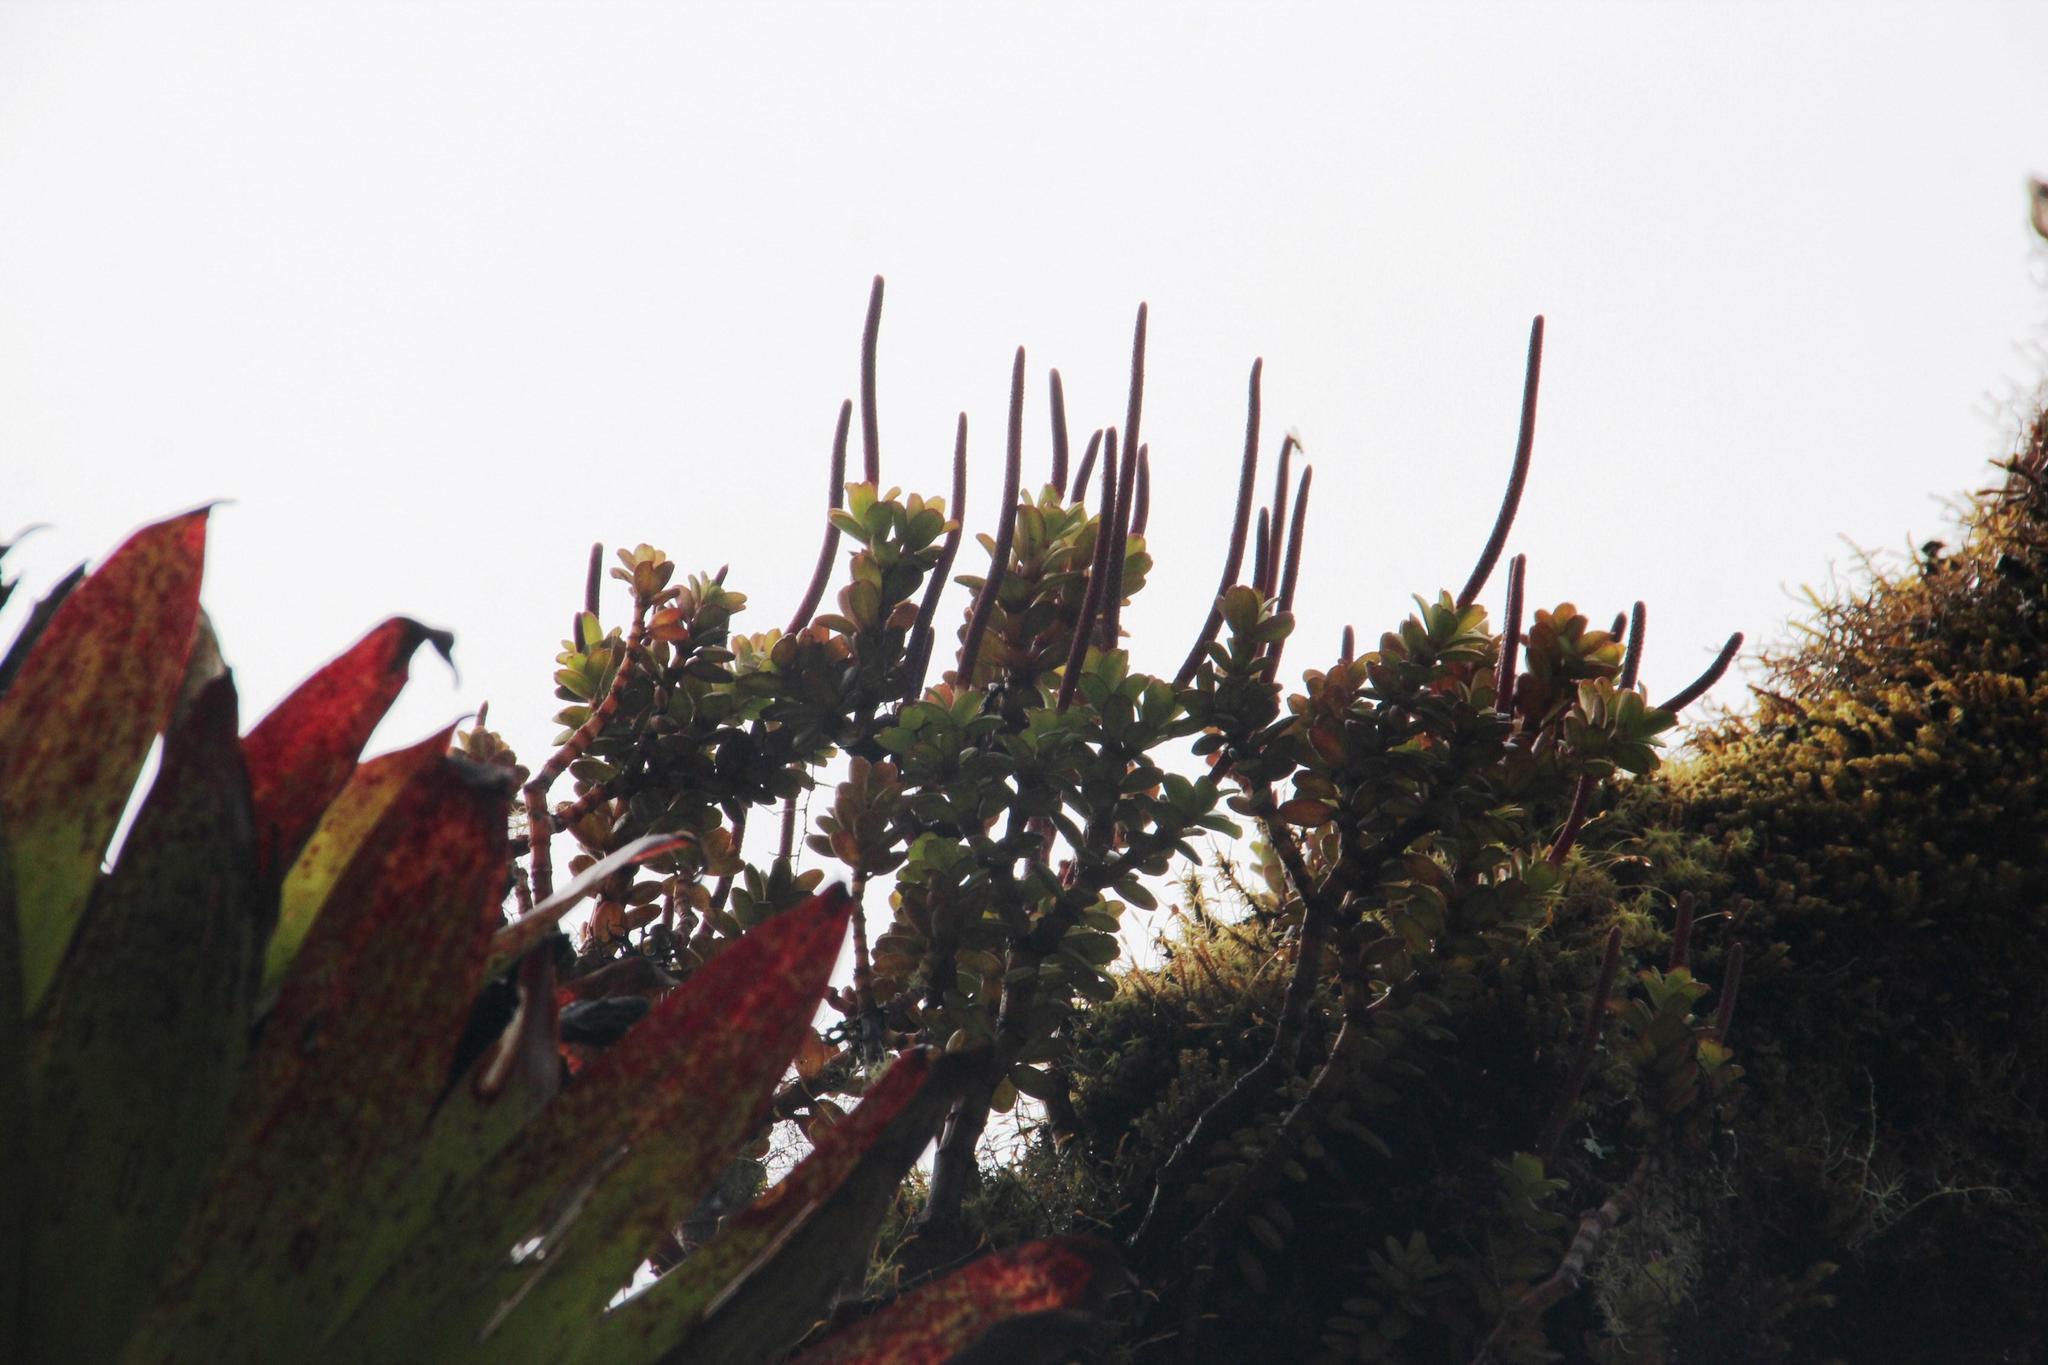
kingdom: Plantae
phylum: Tracheophyta
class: Magnoliopsida
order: Piperales
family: Piperaceae
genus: Peperomia
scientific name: Peperomia hartwegiana
